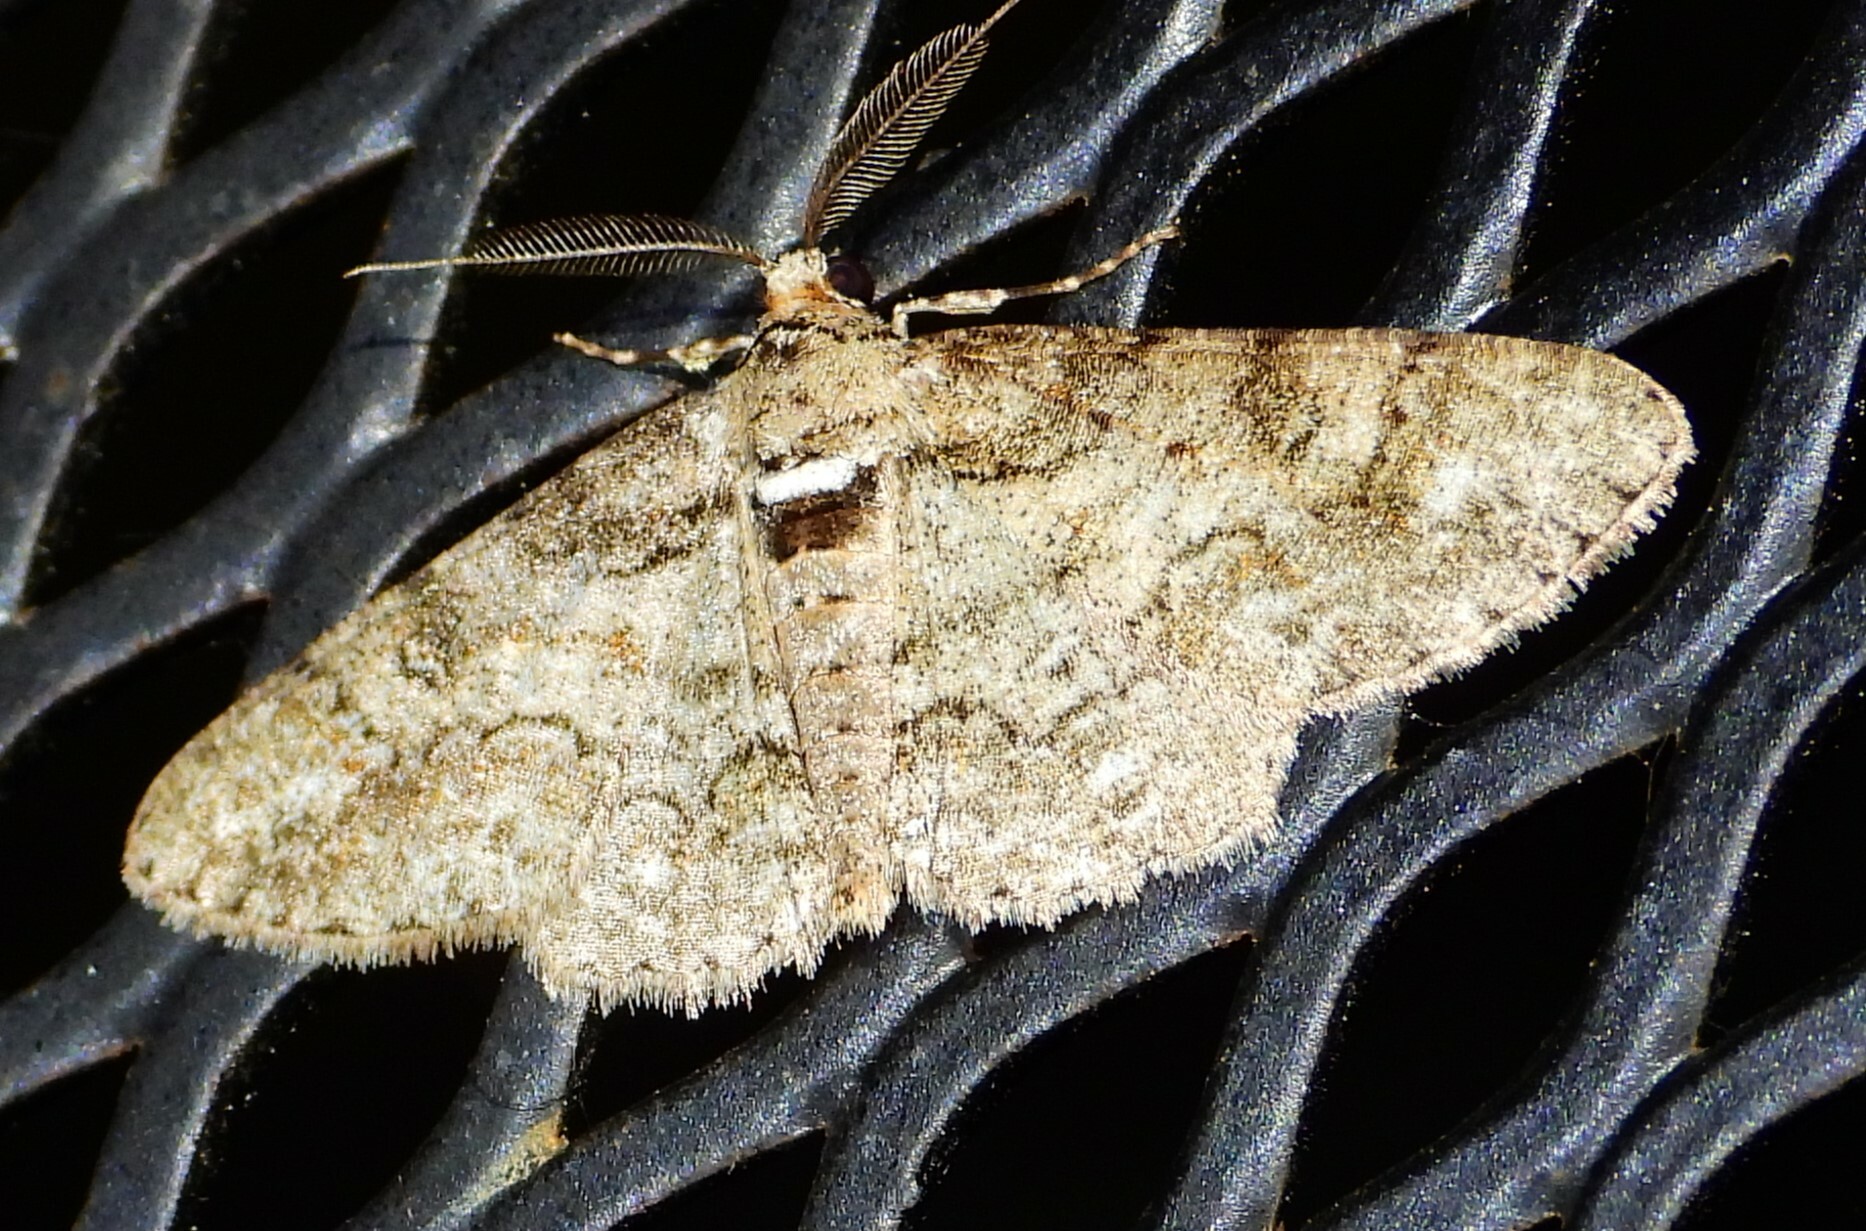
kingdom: Animalia
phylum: Arthropoda
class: Insecta
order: Lepidoptera
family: Geometridae
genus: Cleora
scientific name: Cleora sublunaria
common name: Double-lined gray
